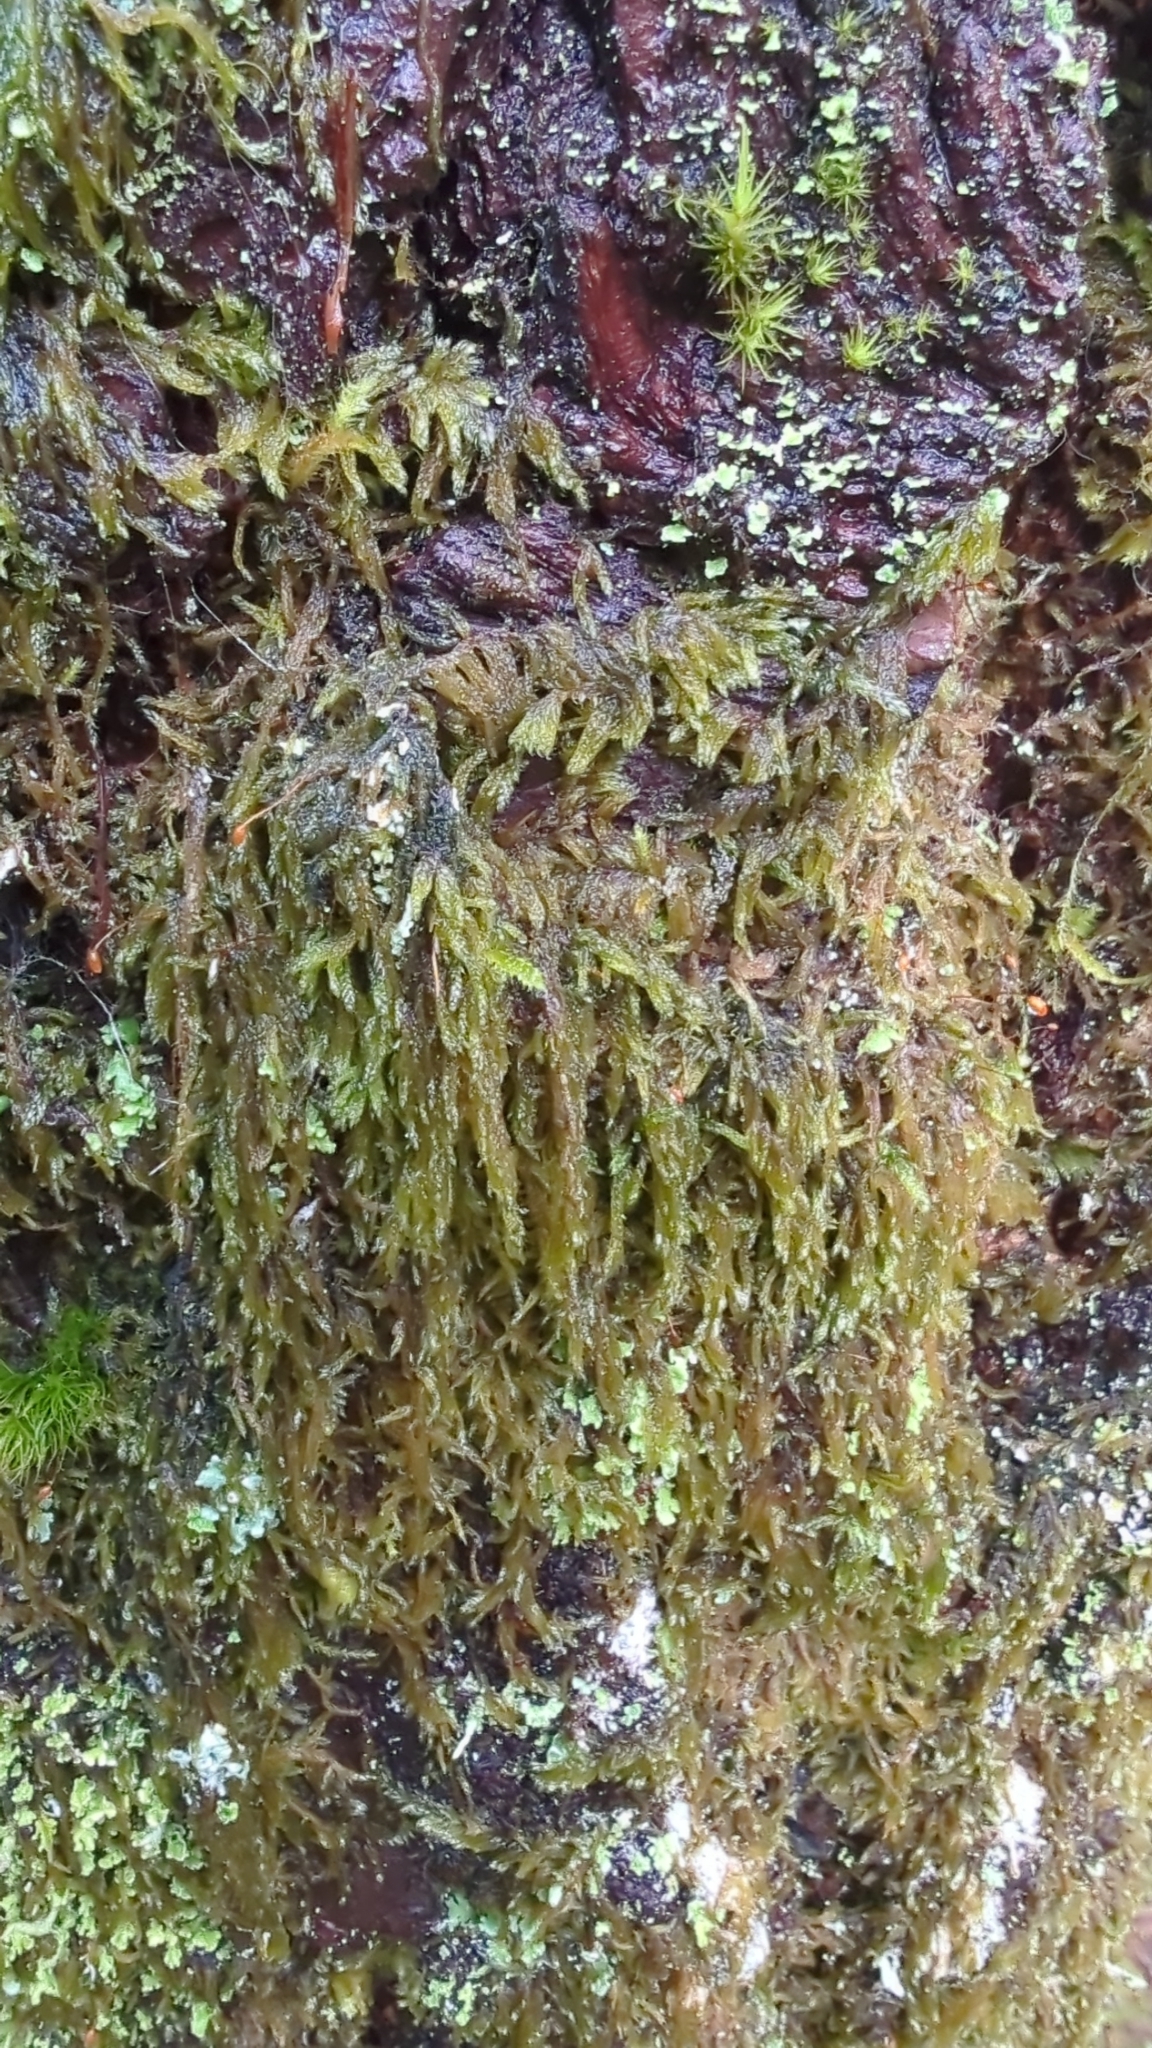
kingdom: Plantae
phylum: Bryophyta
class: Bryopsida
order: Hypnales
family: Pylaisiadelphaceae
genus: Trochophyllohypnum
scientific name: Trochophyllohypnum circinale
